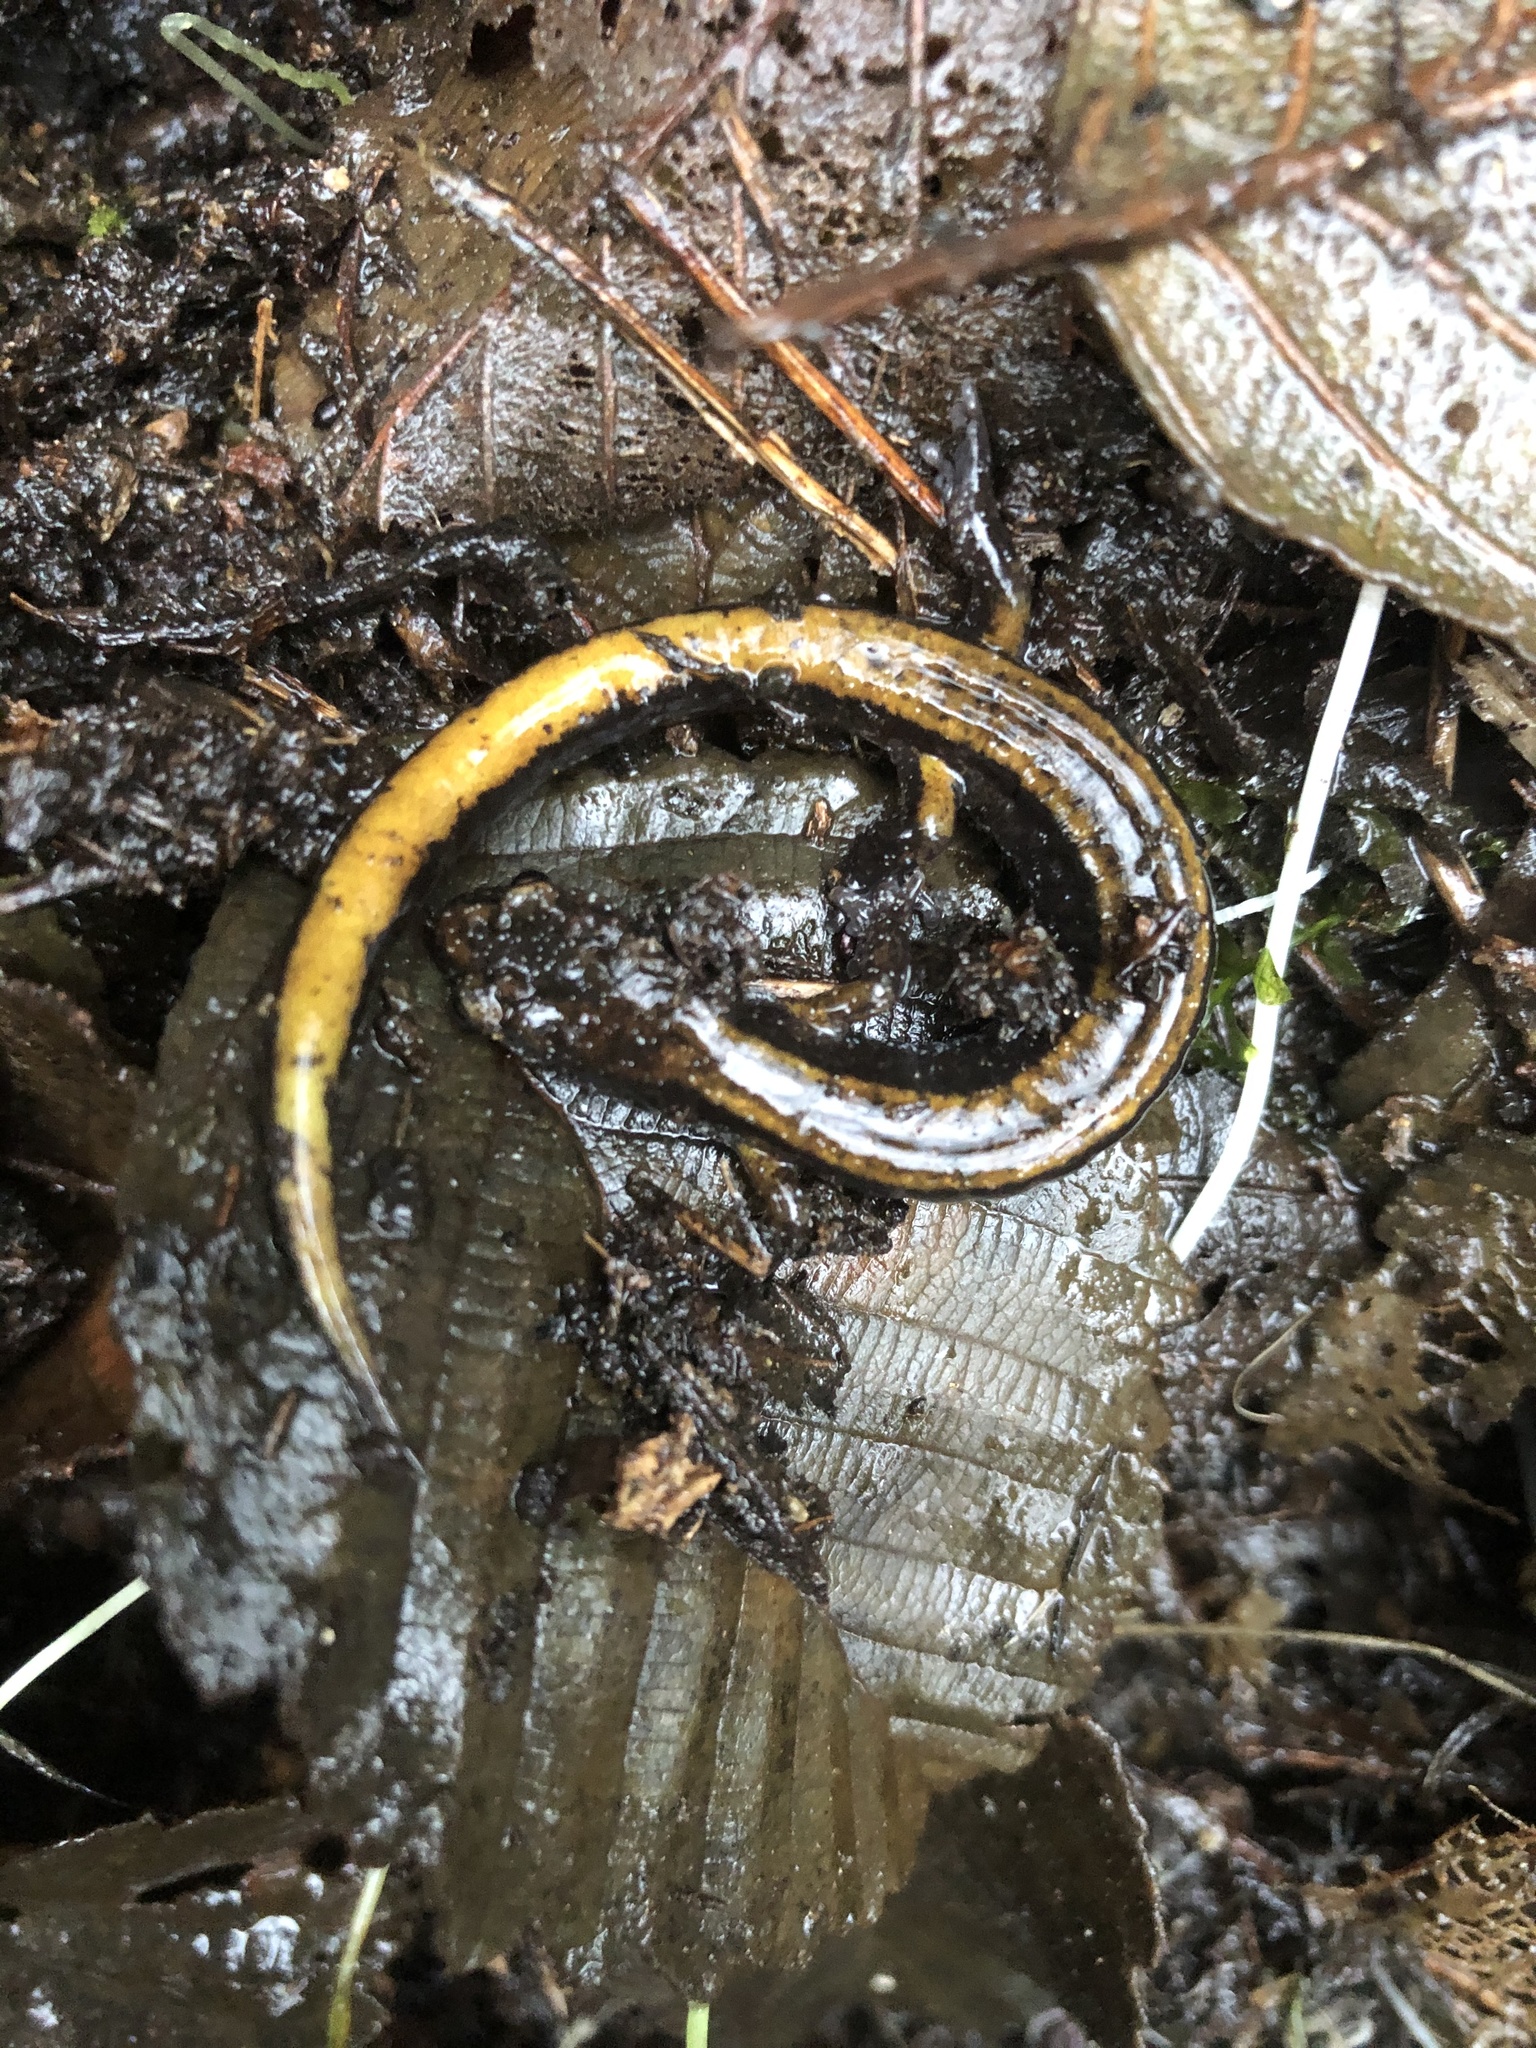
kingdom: Animalia
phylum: Chordata
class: Amphibia
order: Caudata
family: Plethodontidae
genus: Plethodon
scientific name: Plethodon vehiculum
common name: Western red-backed salamander
